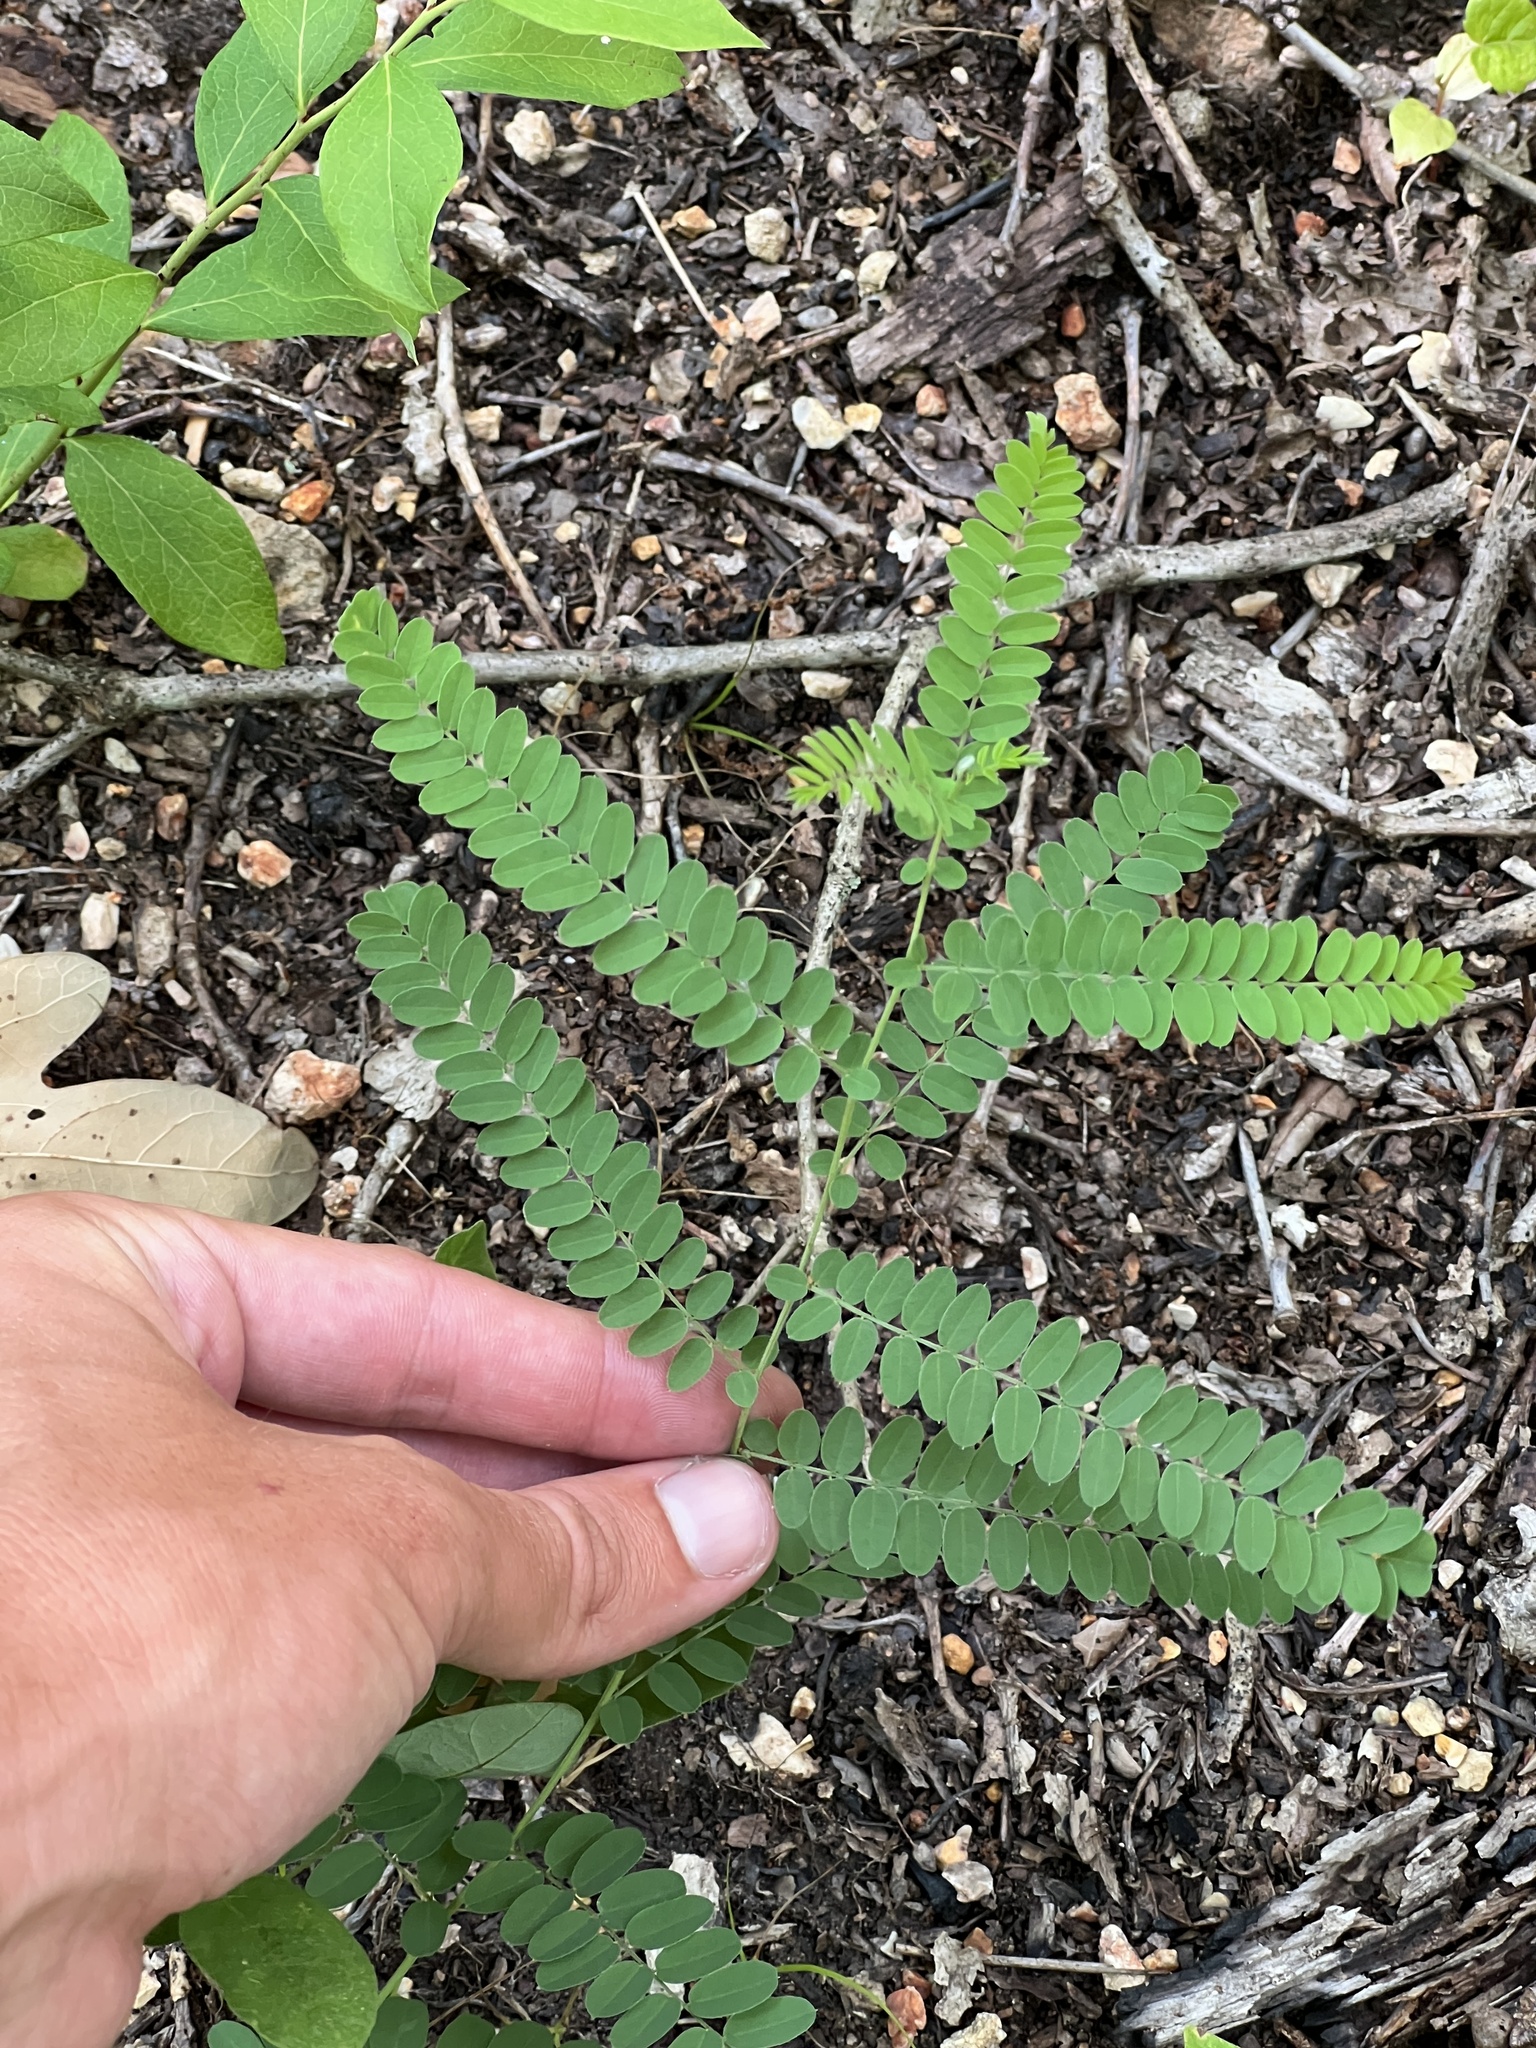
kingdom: Plantae
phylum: Tracheophyta
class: Magnoliopsida
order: Fabales
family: Fabaceae
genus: Amorpha
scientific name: Amorpha canescens
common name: Leadplant
